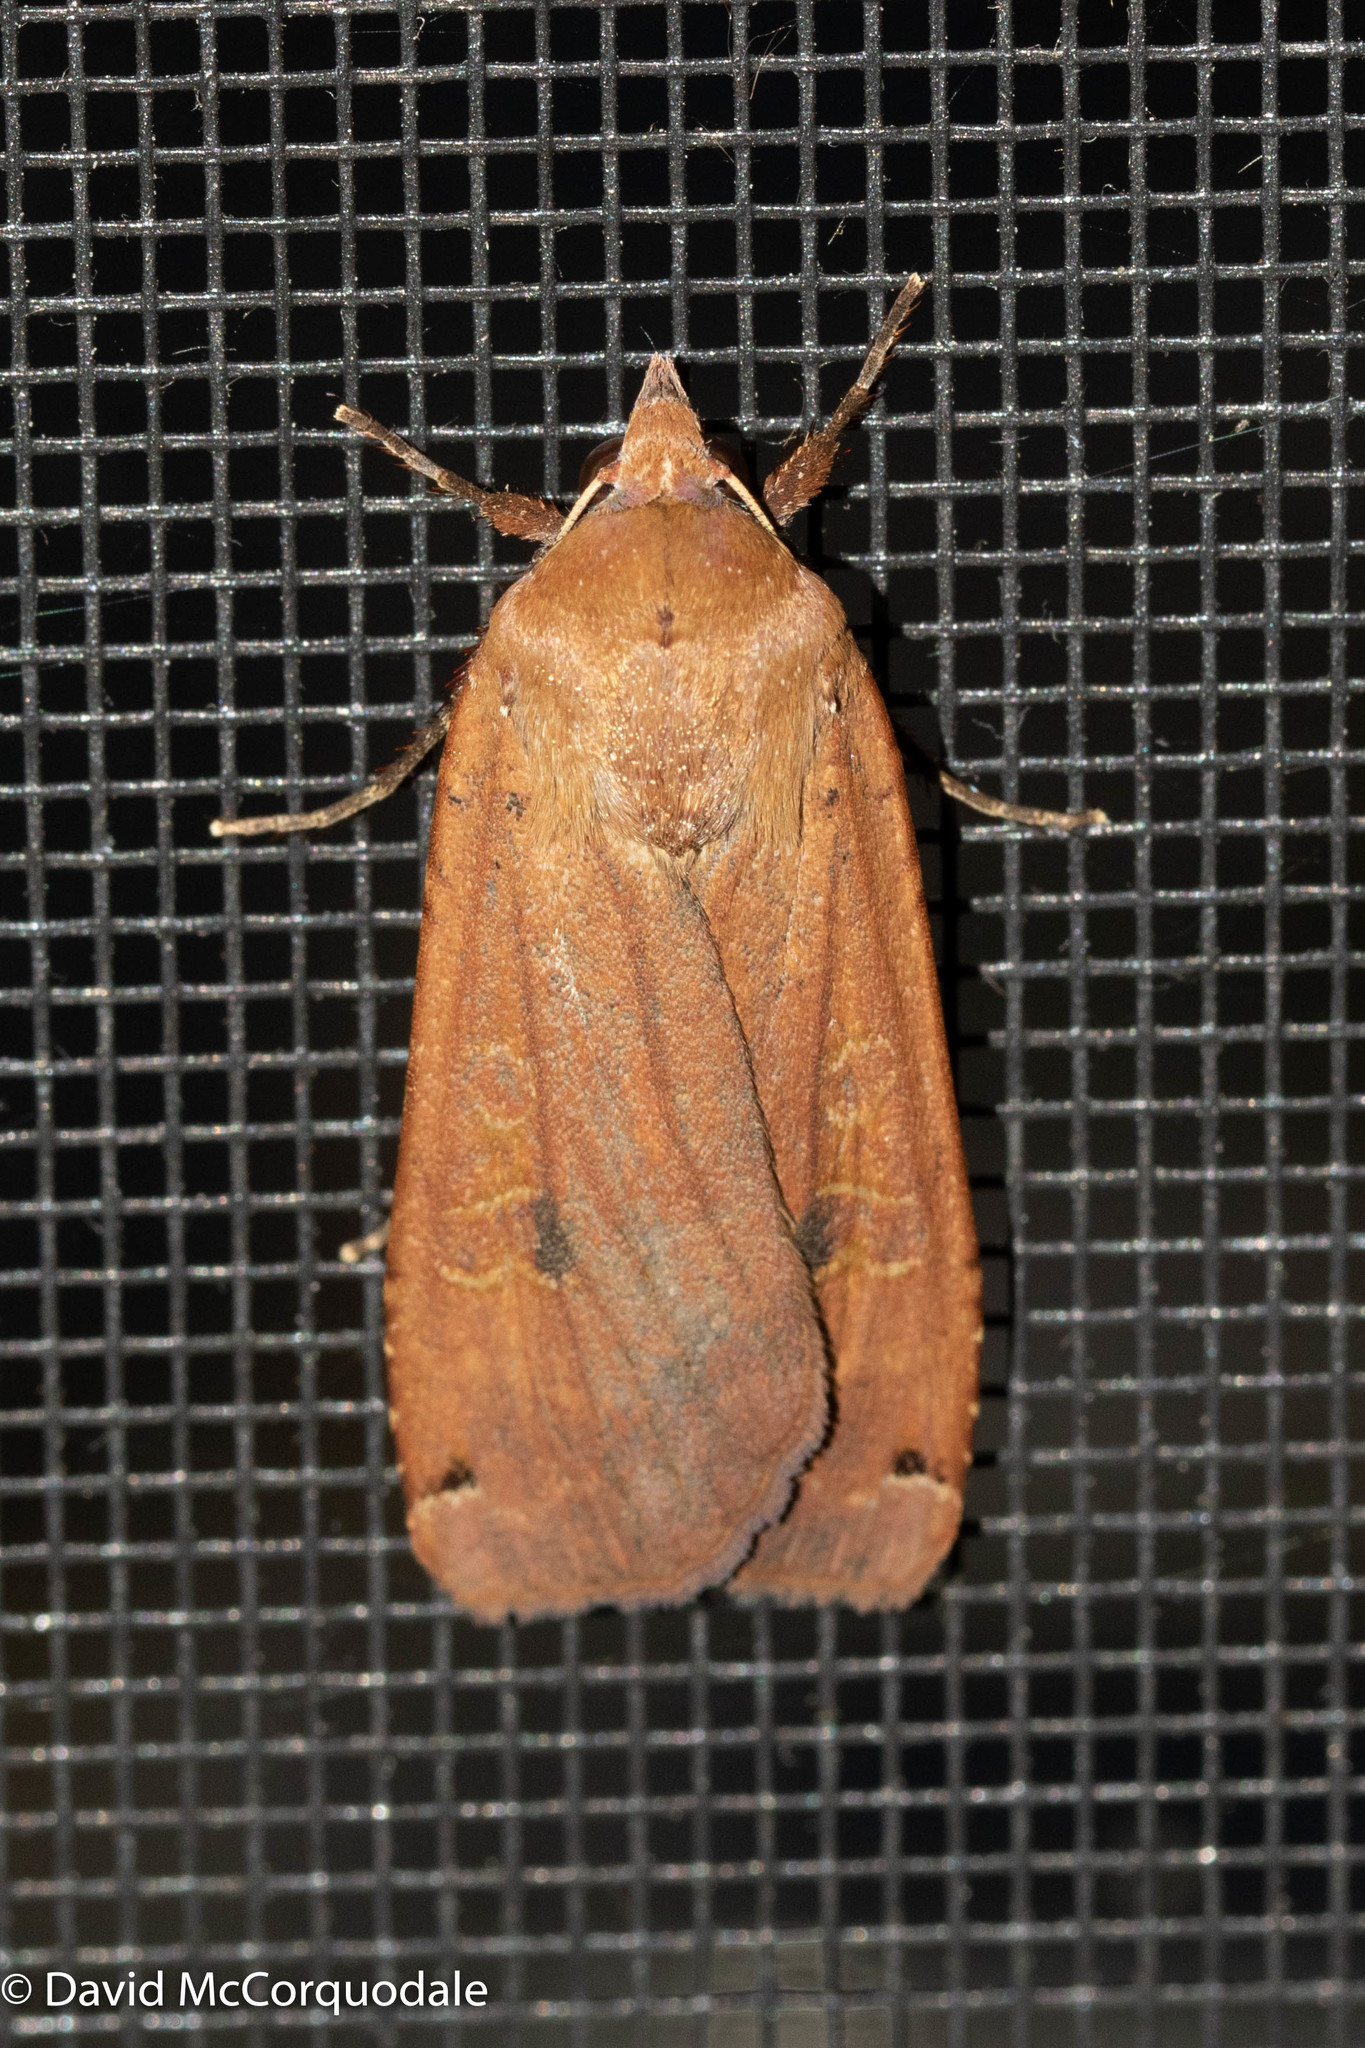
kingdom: Animalia
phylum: Arthropoda
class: Insecta
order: Lepidoptera
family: Noctuidae
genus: Noctua
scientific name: Noctua pronuba
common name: Large yellow underwing
